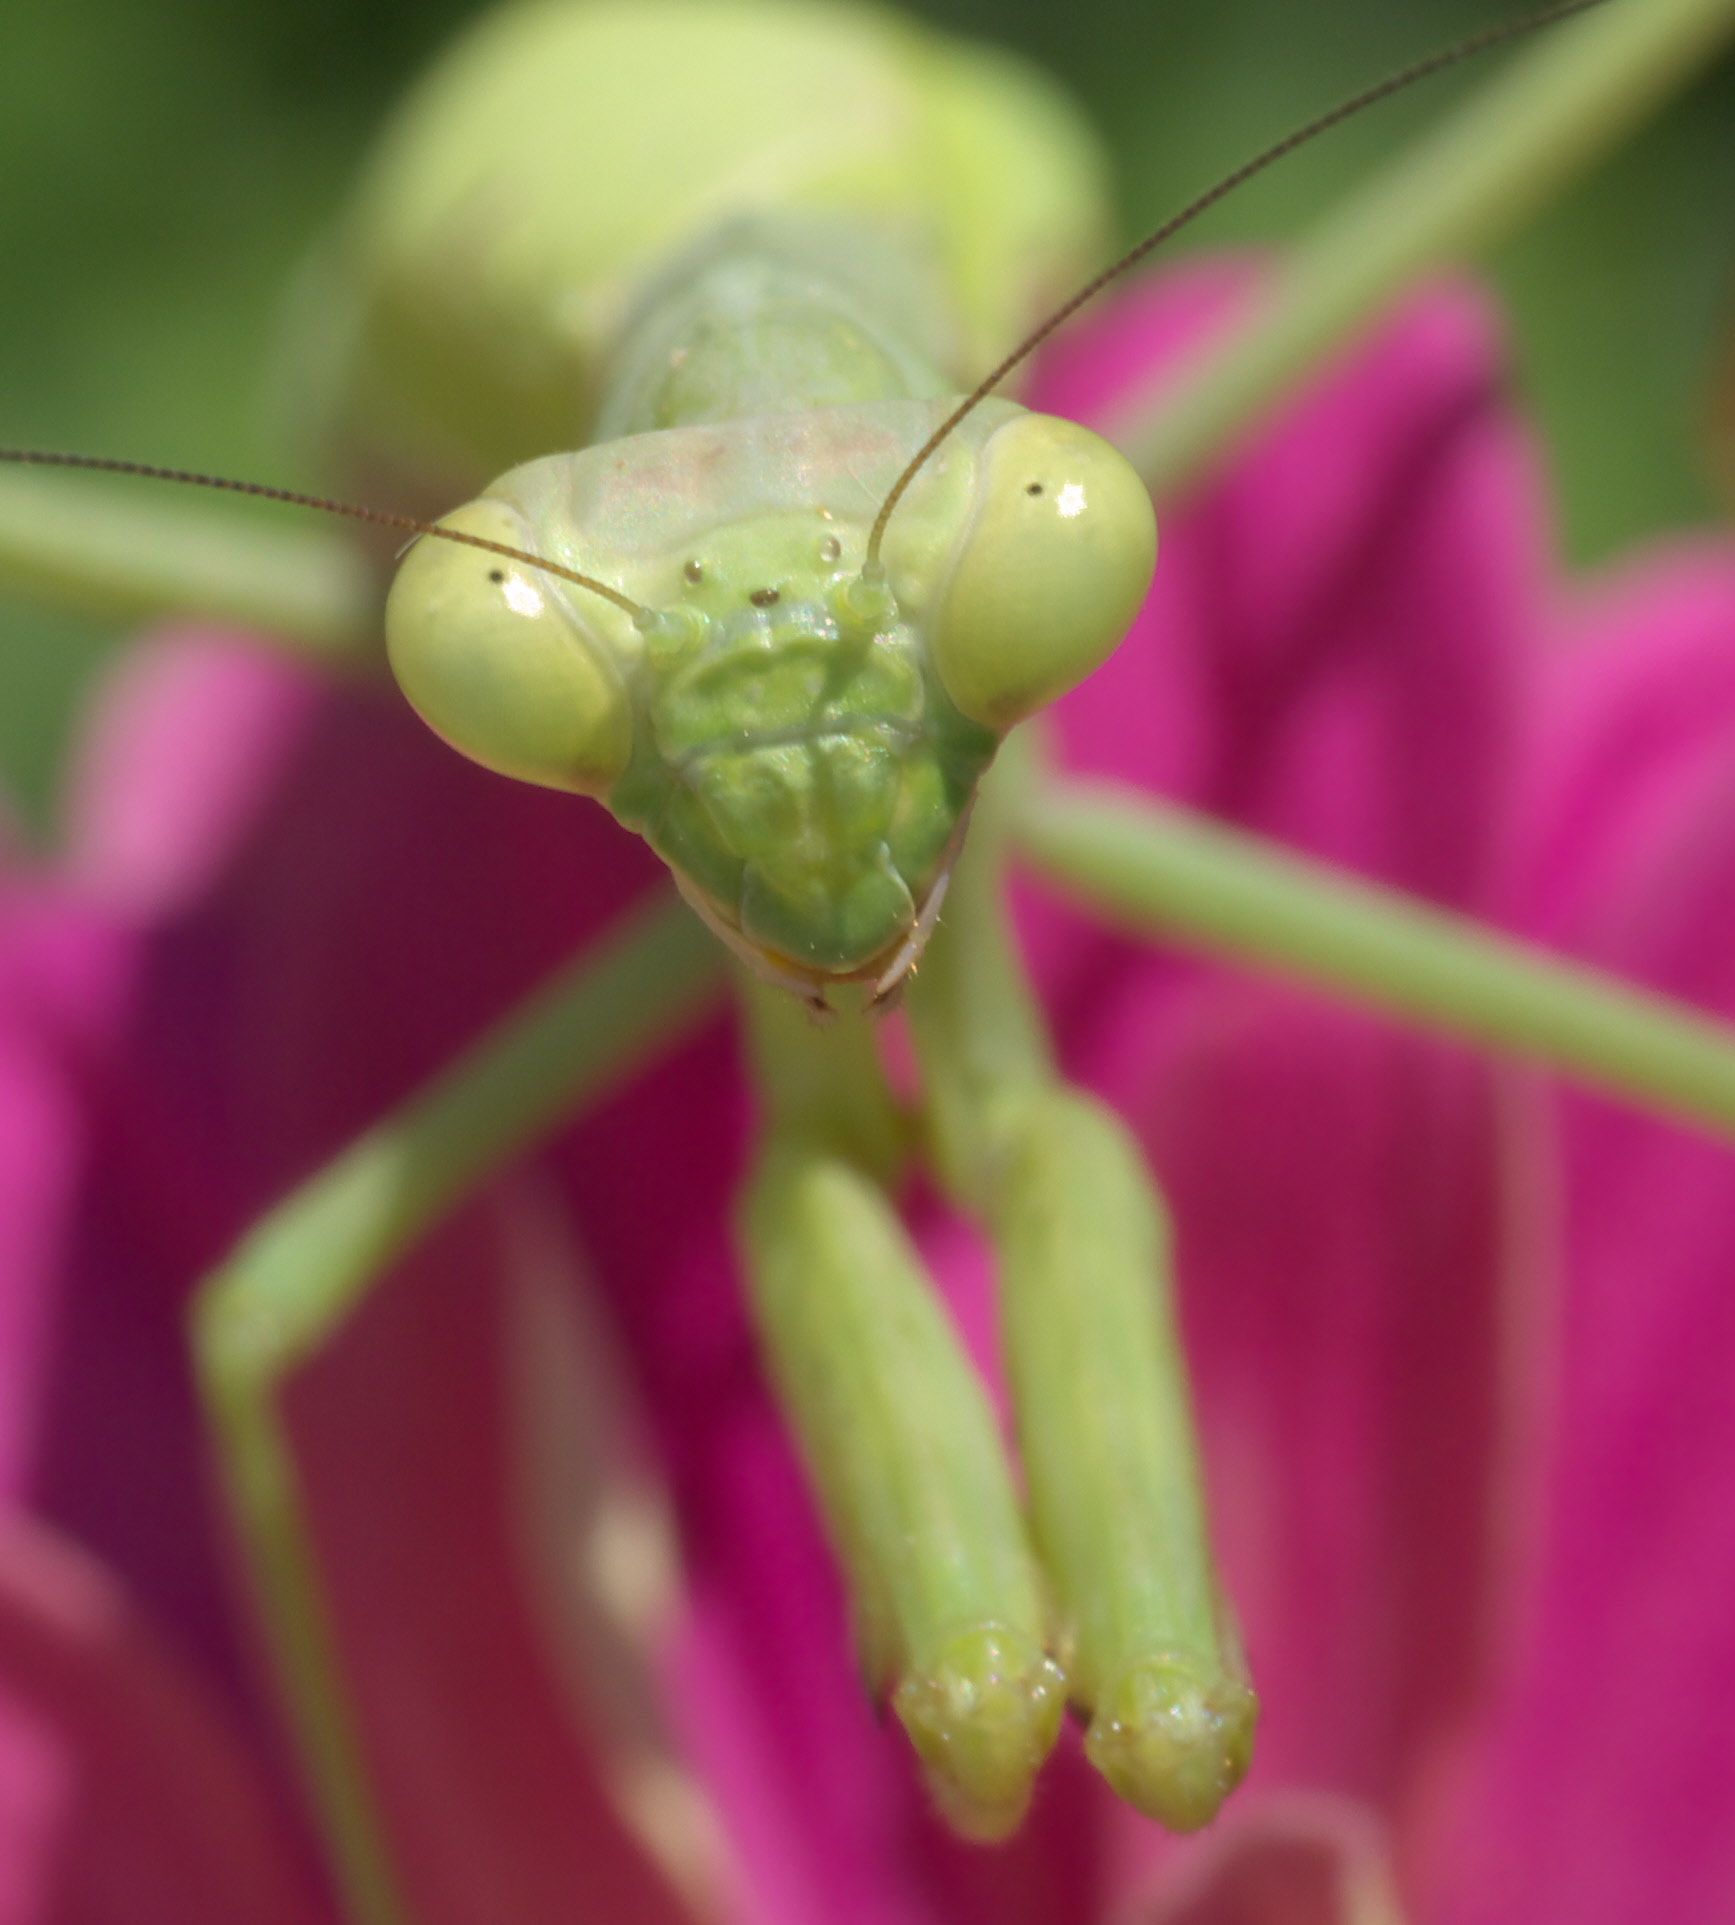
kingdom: Animalia
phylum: Arthropoda
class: Insecta
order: Mantodea
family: Mantidae
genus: Stagmomantis
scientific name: Stagmomantis carolina
